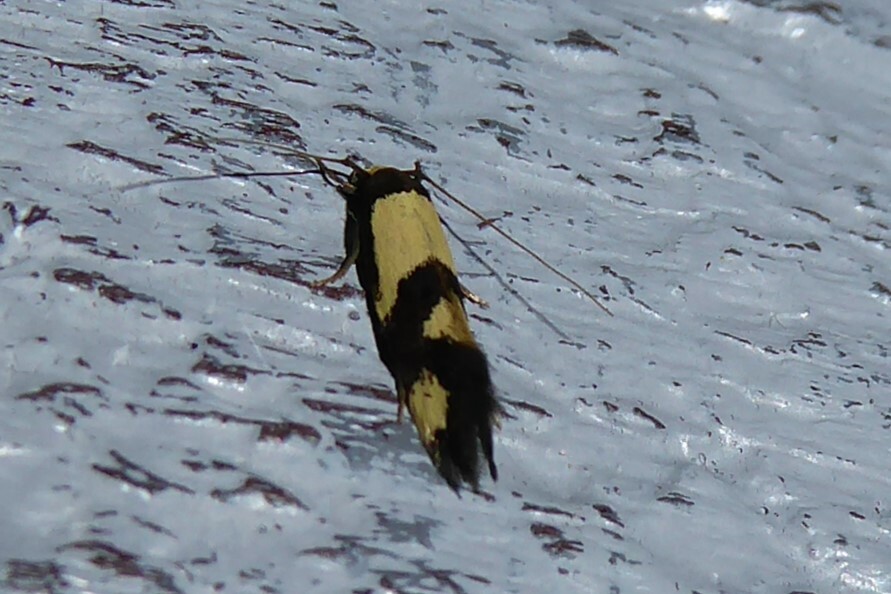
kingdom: Animalia
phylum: Arthropoda
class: Insecta
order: Lepidoptera
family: Tineidae
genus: Opogona
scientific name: Opogona comptella
